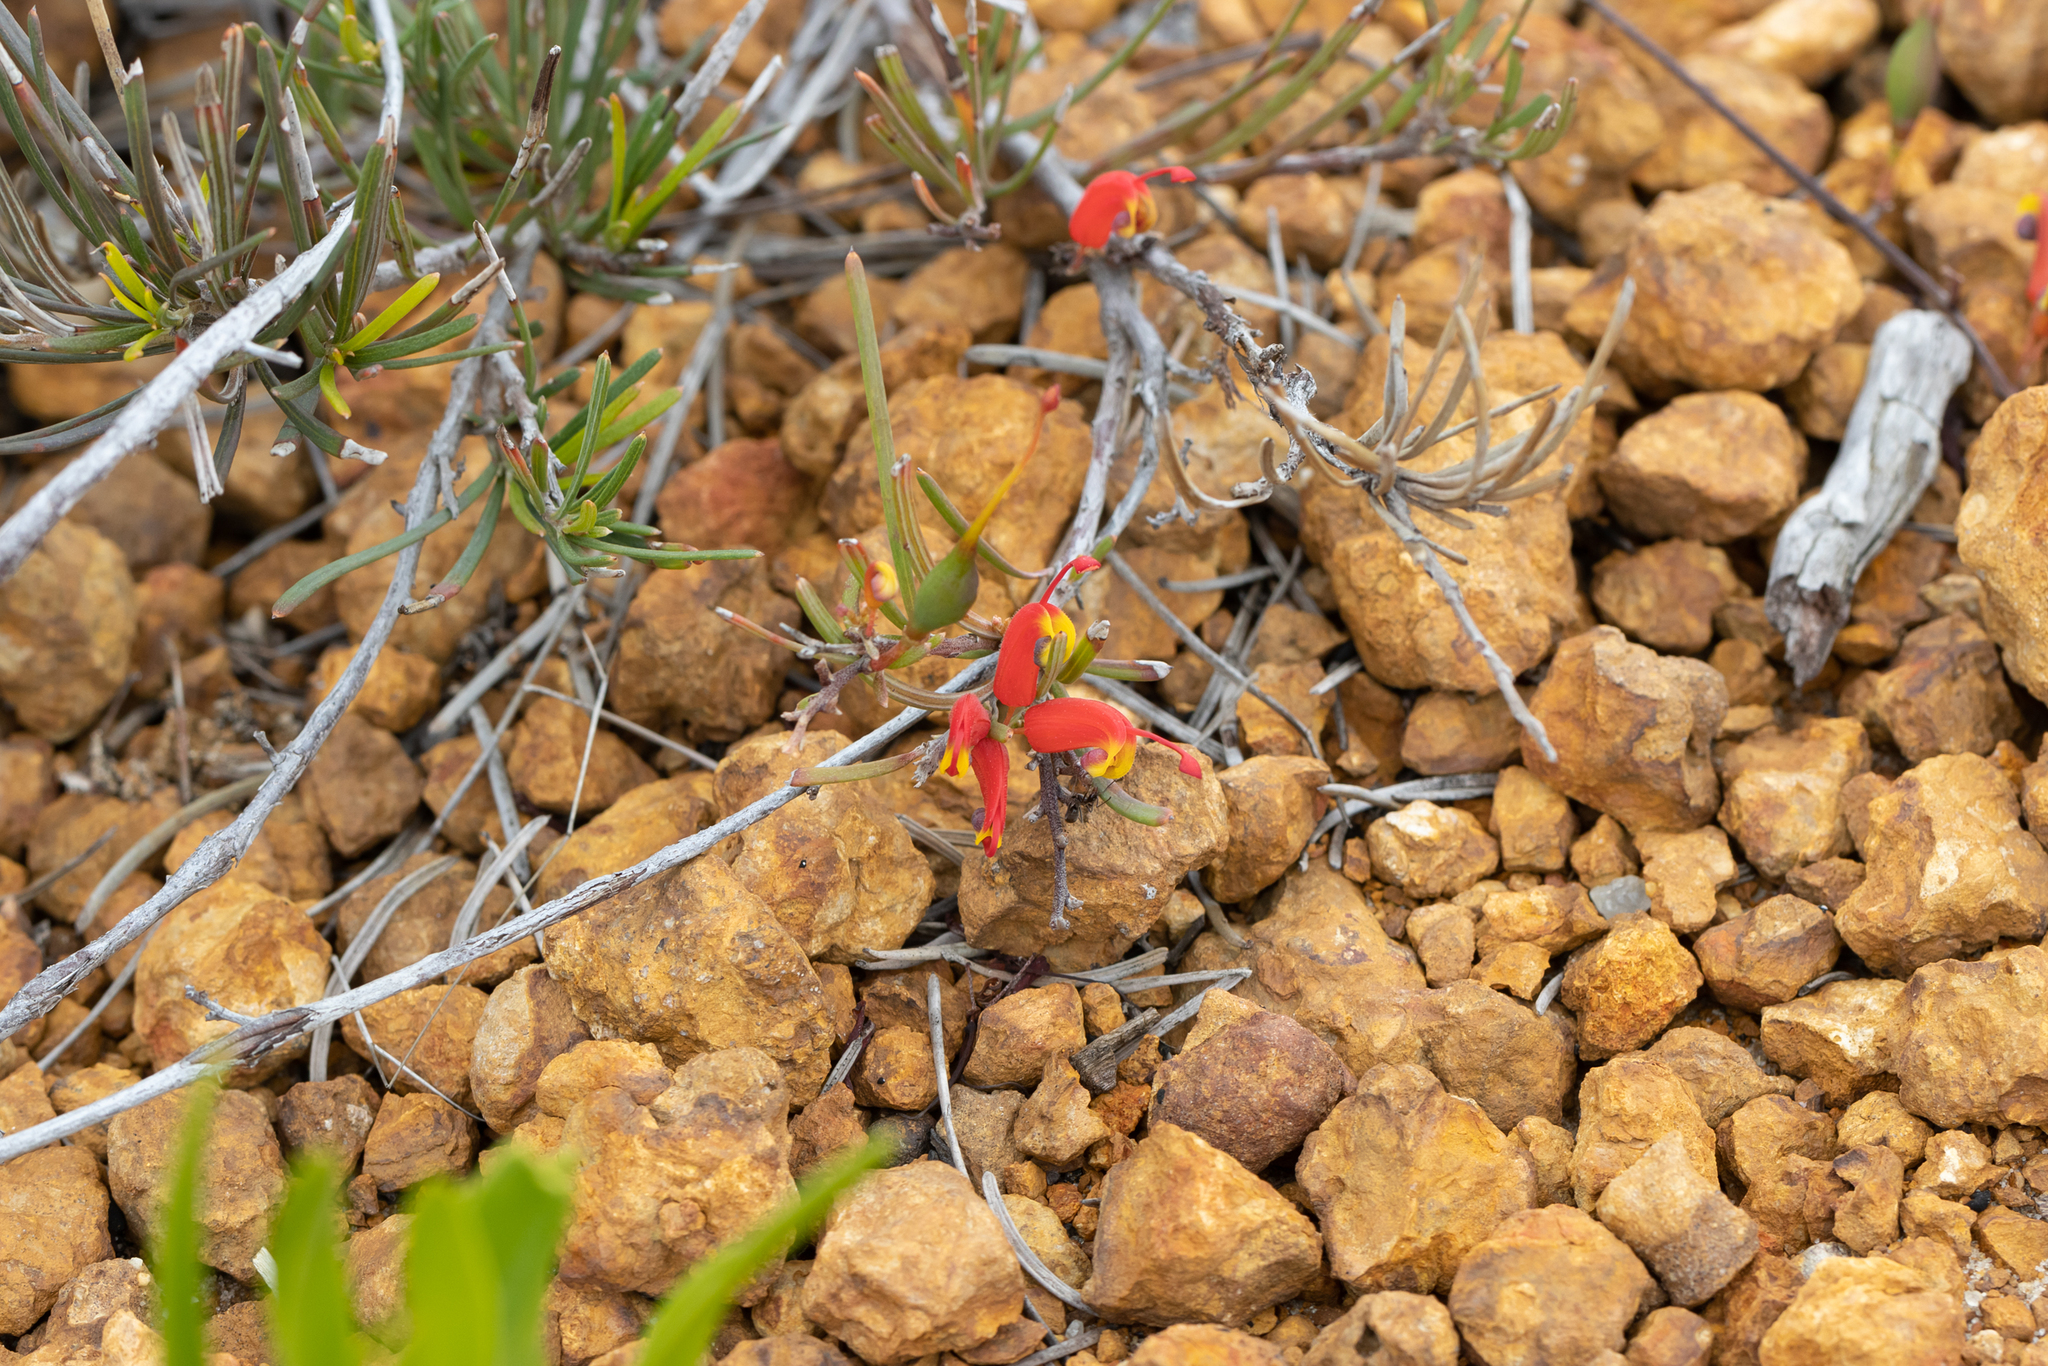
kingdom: Plantae
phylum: Tracheophyta
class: Magnoliopsida
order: Proteales
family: Proteaceae
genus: Grevillea
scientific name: Grevillea nudiflora
